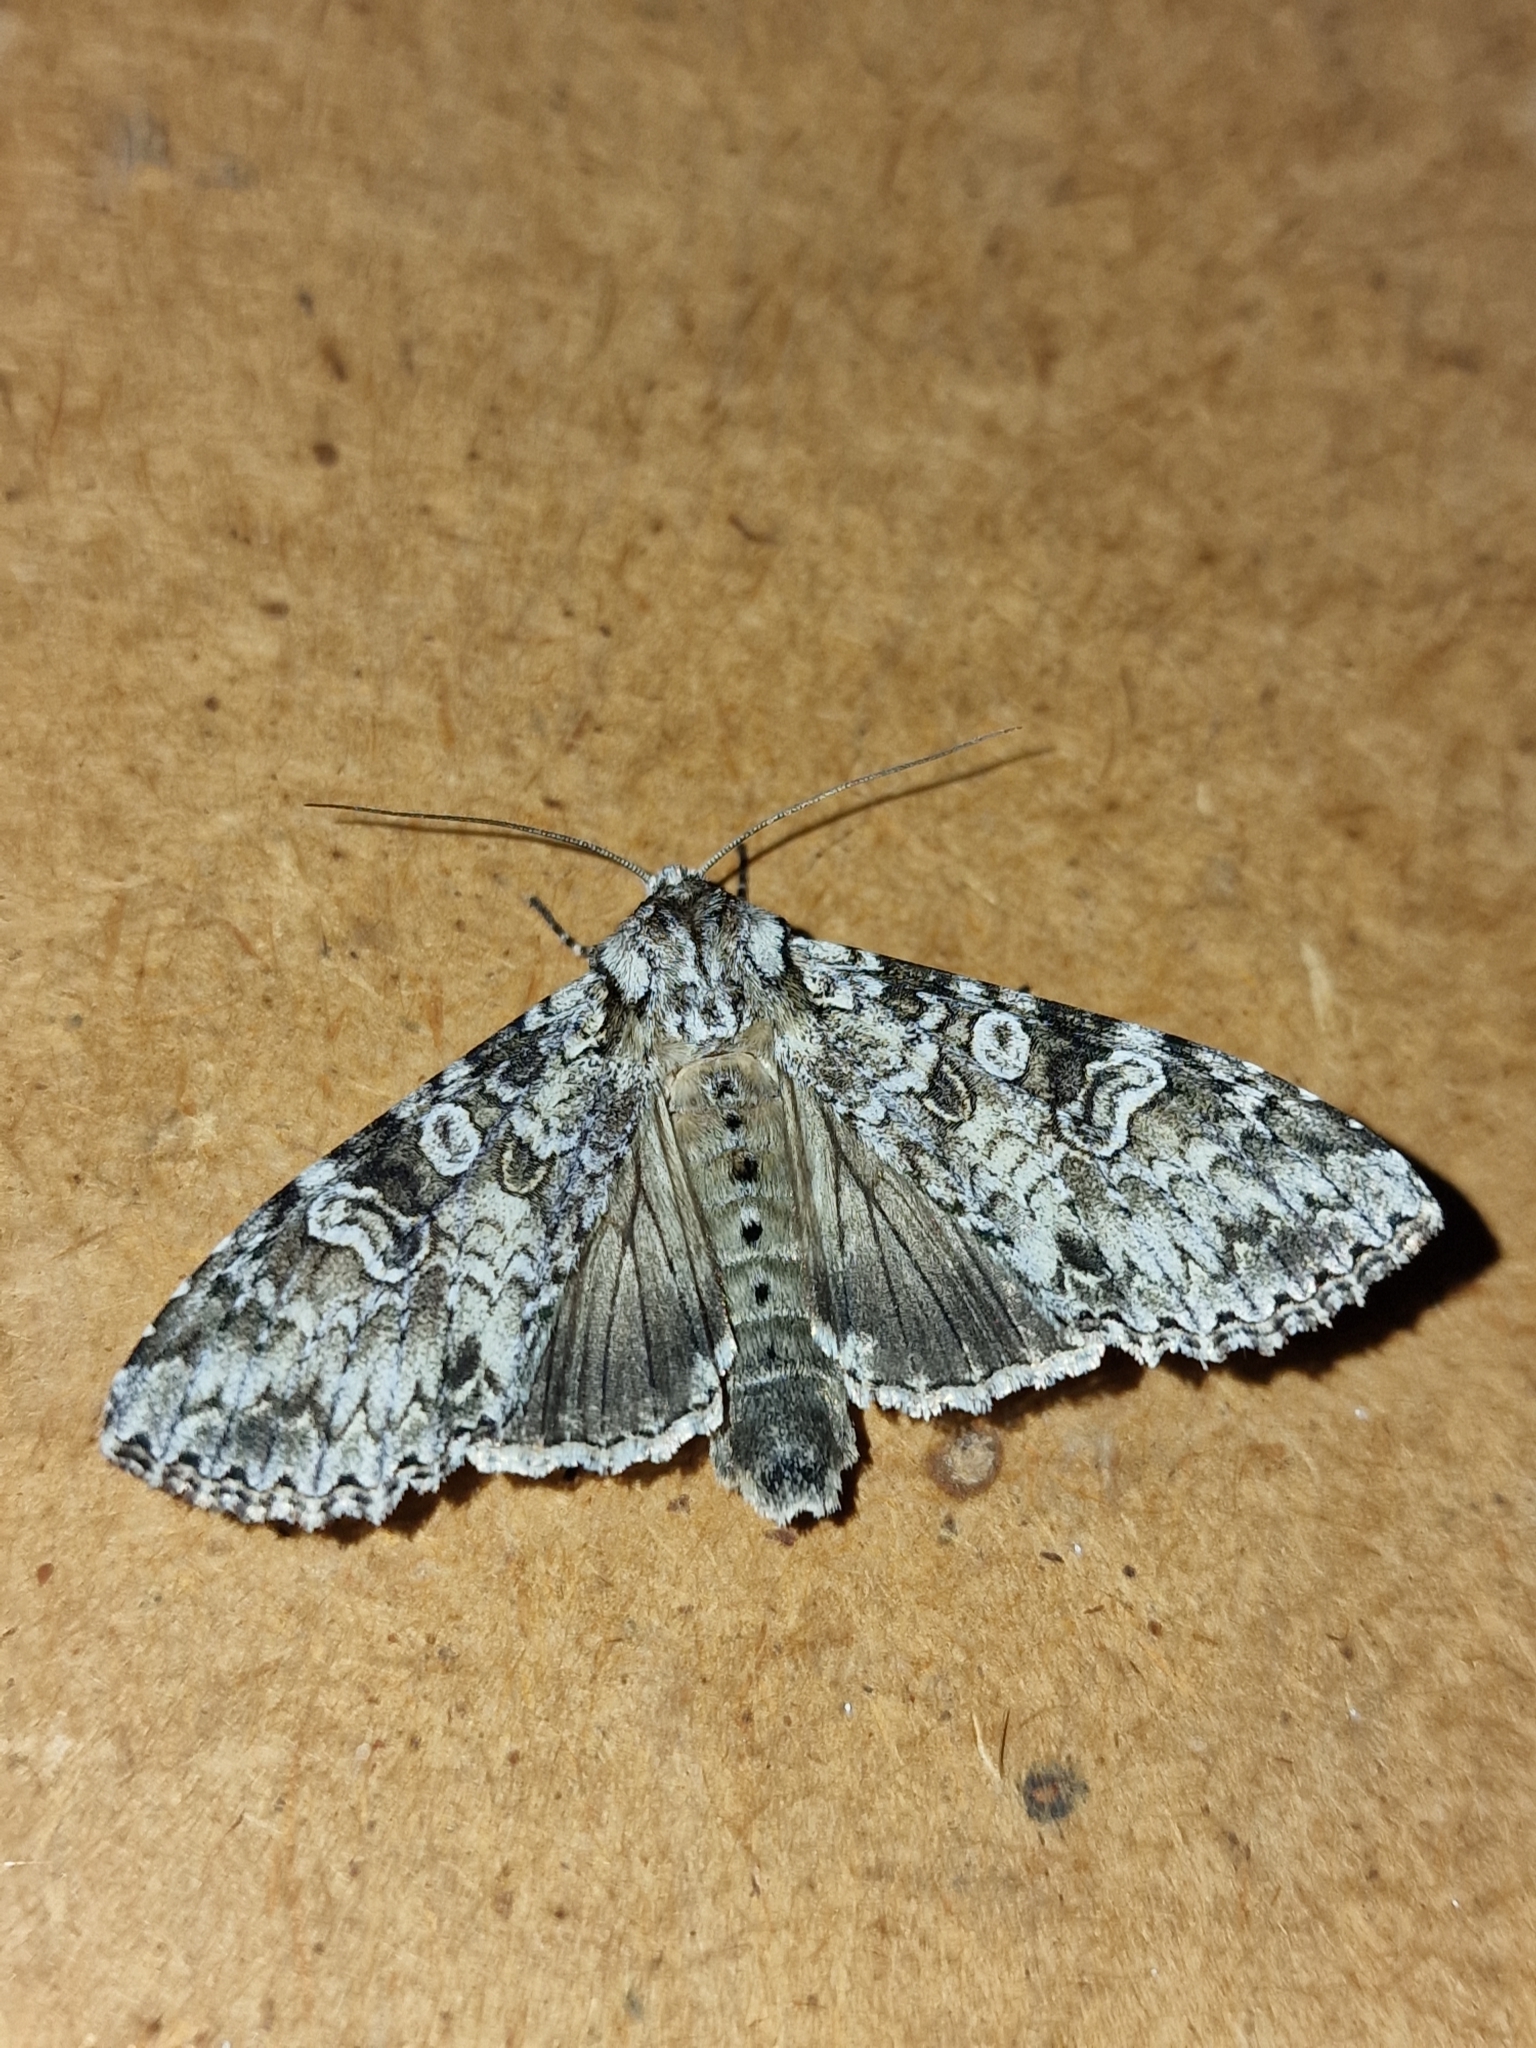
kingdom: Animalia
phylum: Arthropoda
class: Insecta
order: Lepidoptera
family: Noctuidae
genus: Polia
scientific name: Polia nebulosa
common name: Grey arches
